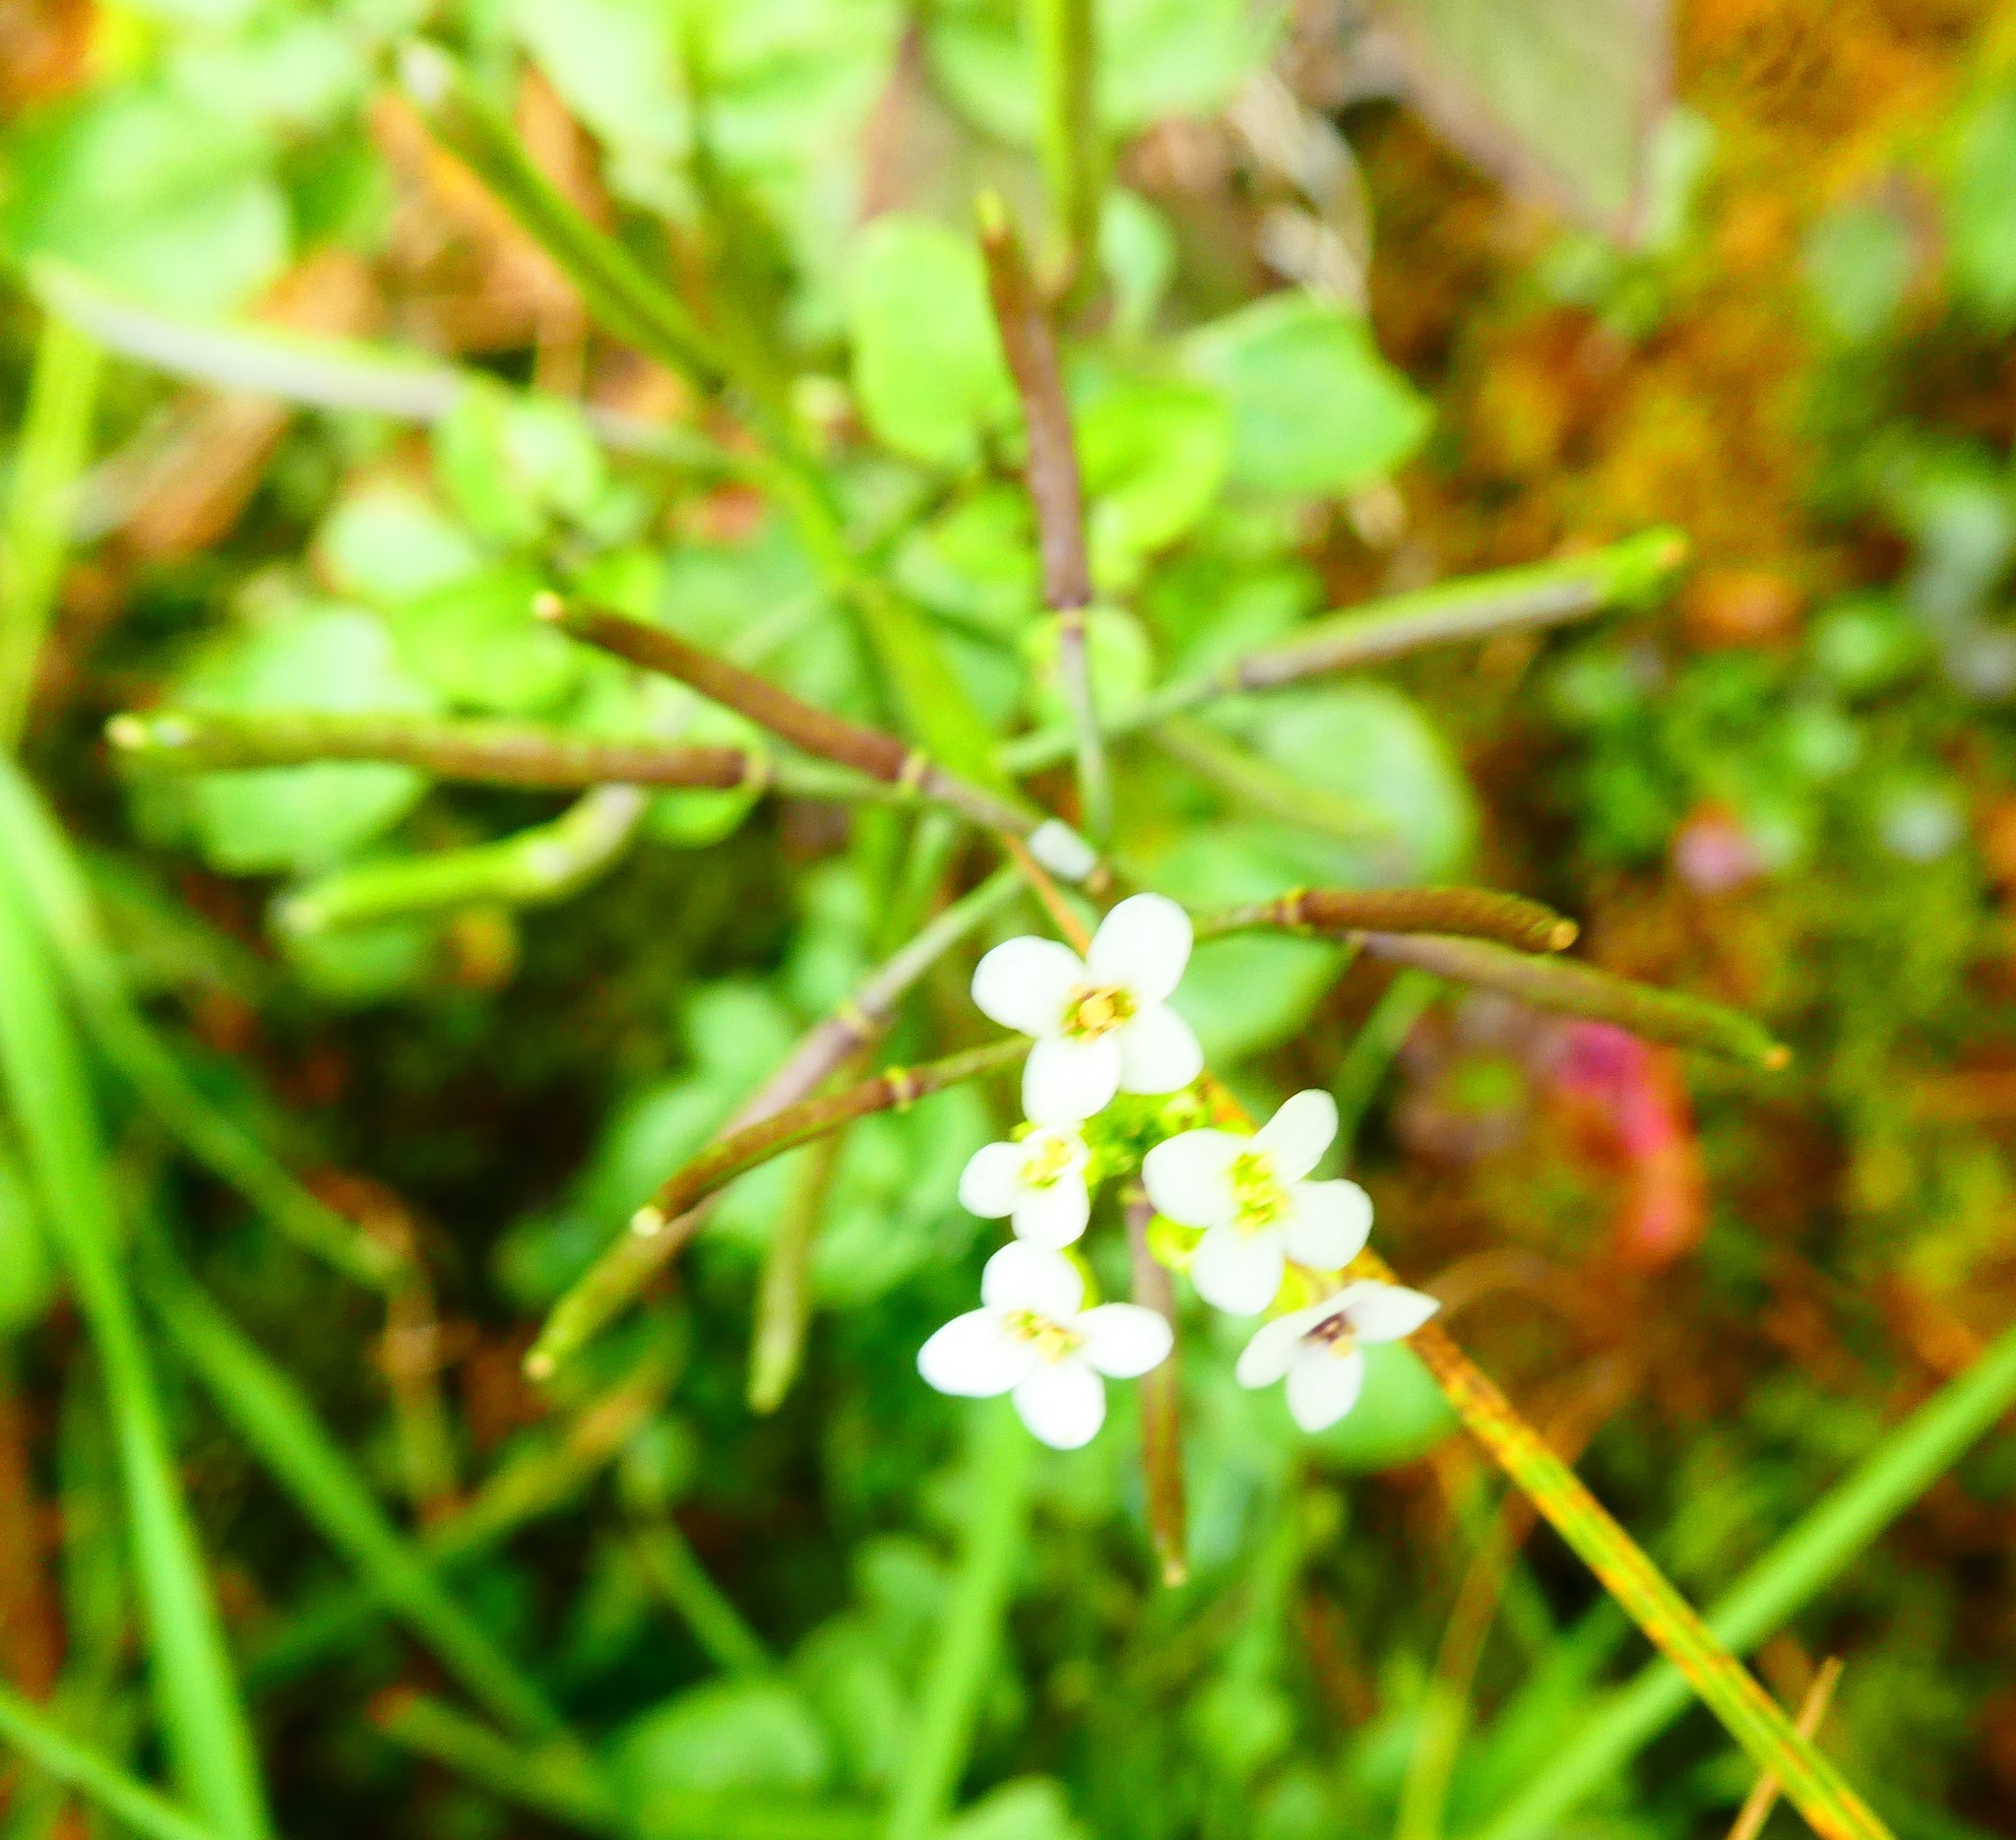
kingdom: Plantae
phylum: Tracheophyta
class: Magnoliopsida
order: Brassicales
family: Brassicaceae
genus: Nasturtium
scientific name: Nasturtium officinale
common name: Watercress
